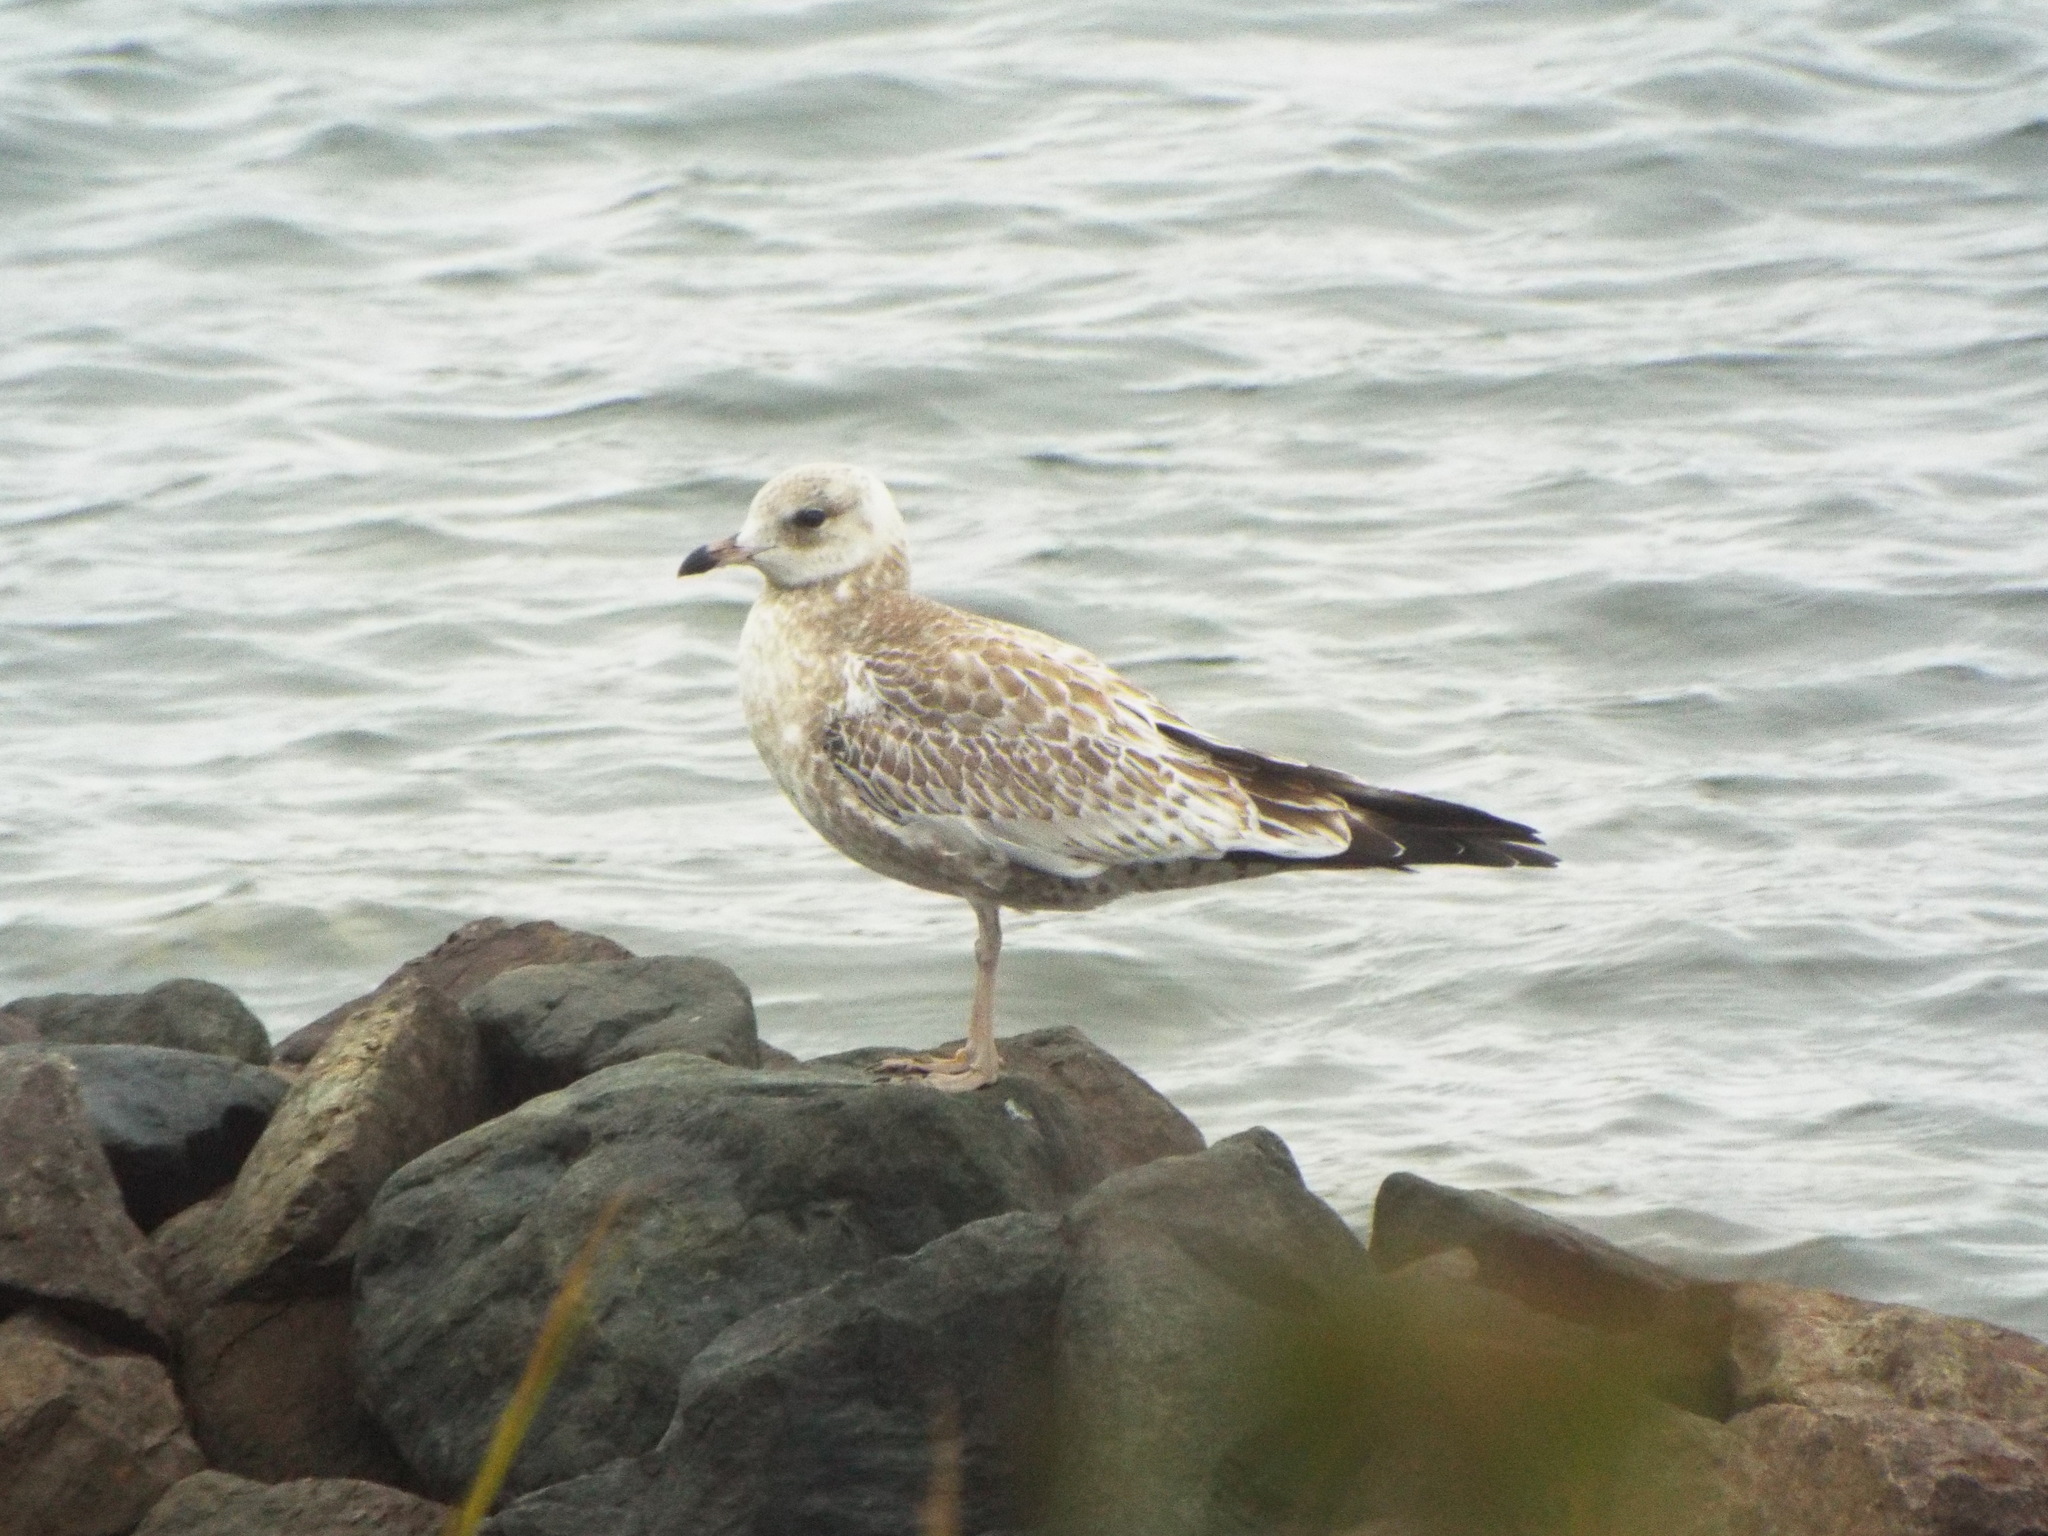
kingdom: Animalia
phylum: Chordata
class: Aves
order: Charadriiformes
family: Laridae
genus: Larus
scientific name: Larus delawarensis
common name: Ring-billed gull
